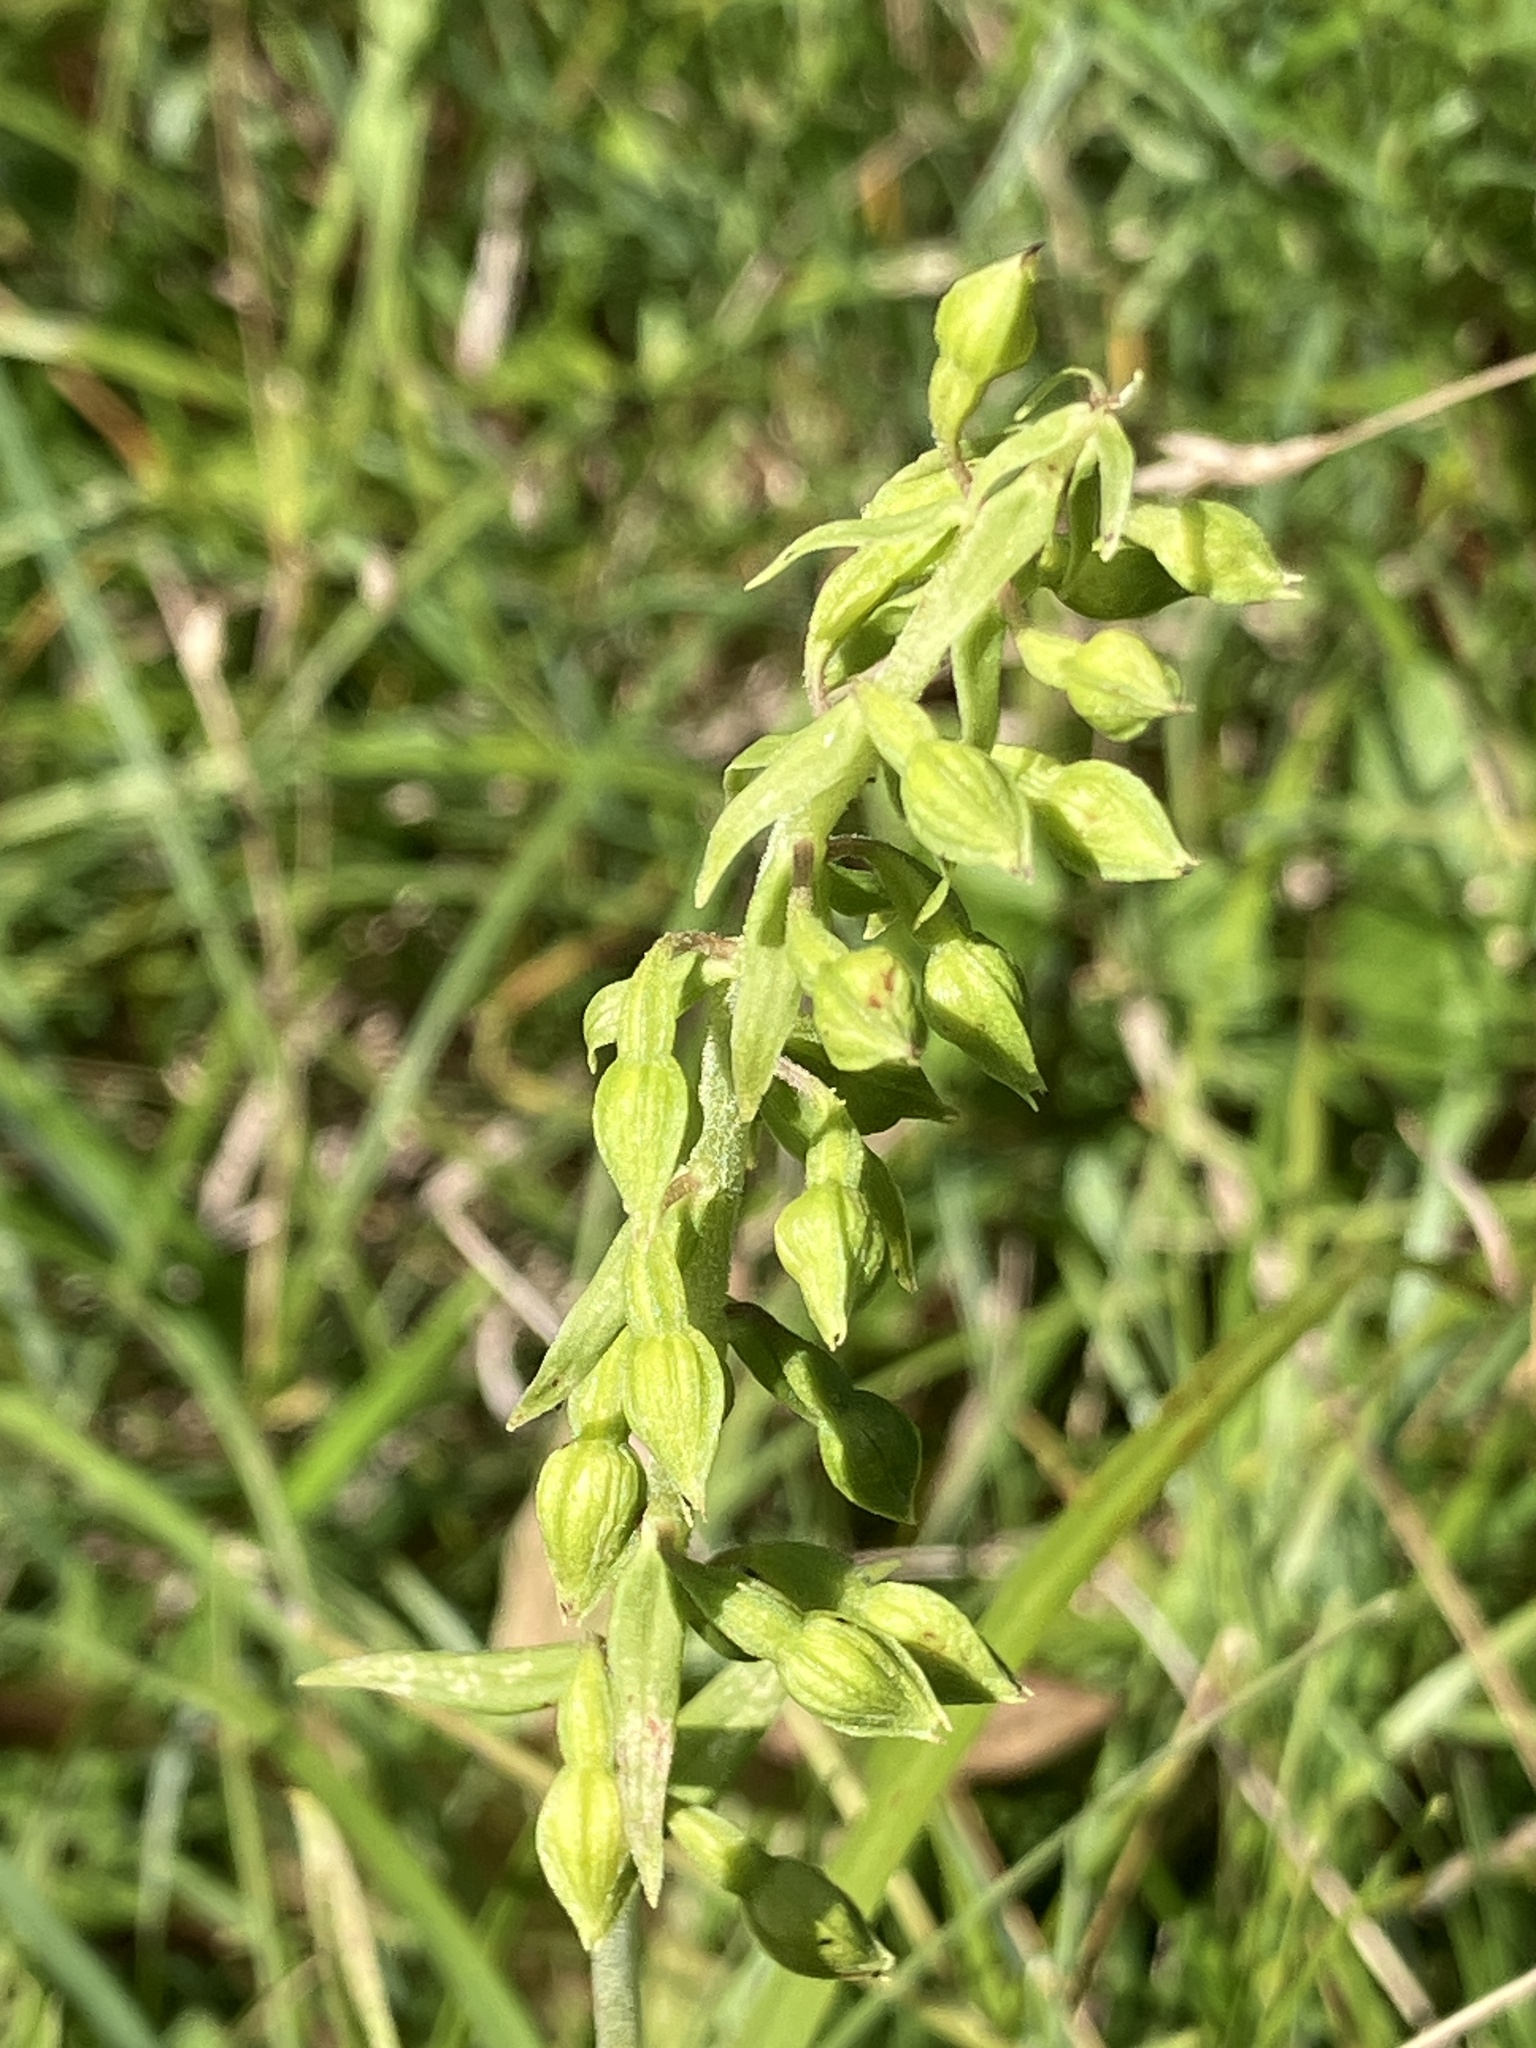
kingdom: Plantae
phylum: Tracheophyta
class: Liliopsida
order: Asparagales
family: Orchidaceae
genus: Epipactis
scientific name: Epipactis helleborine
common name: Broad-leaved helleborine
